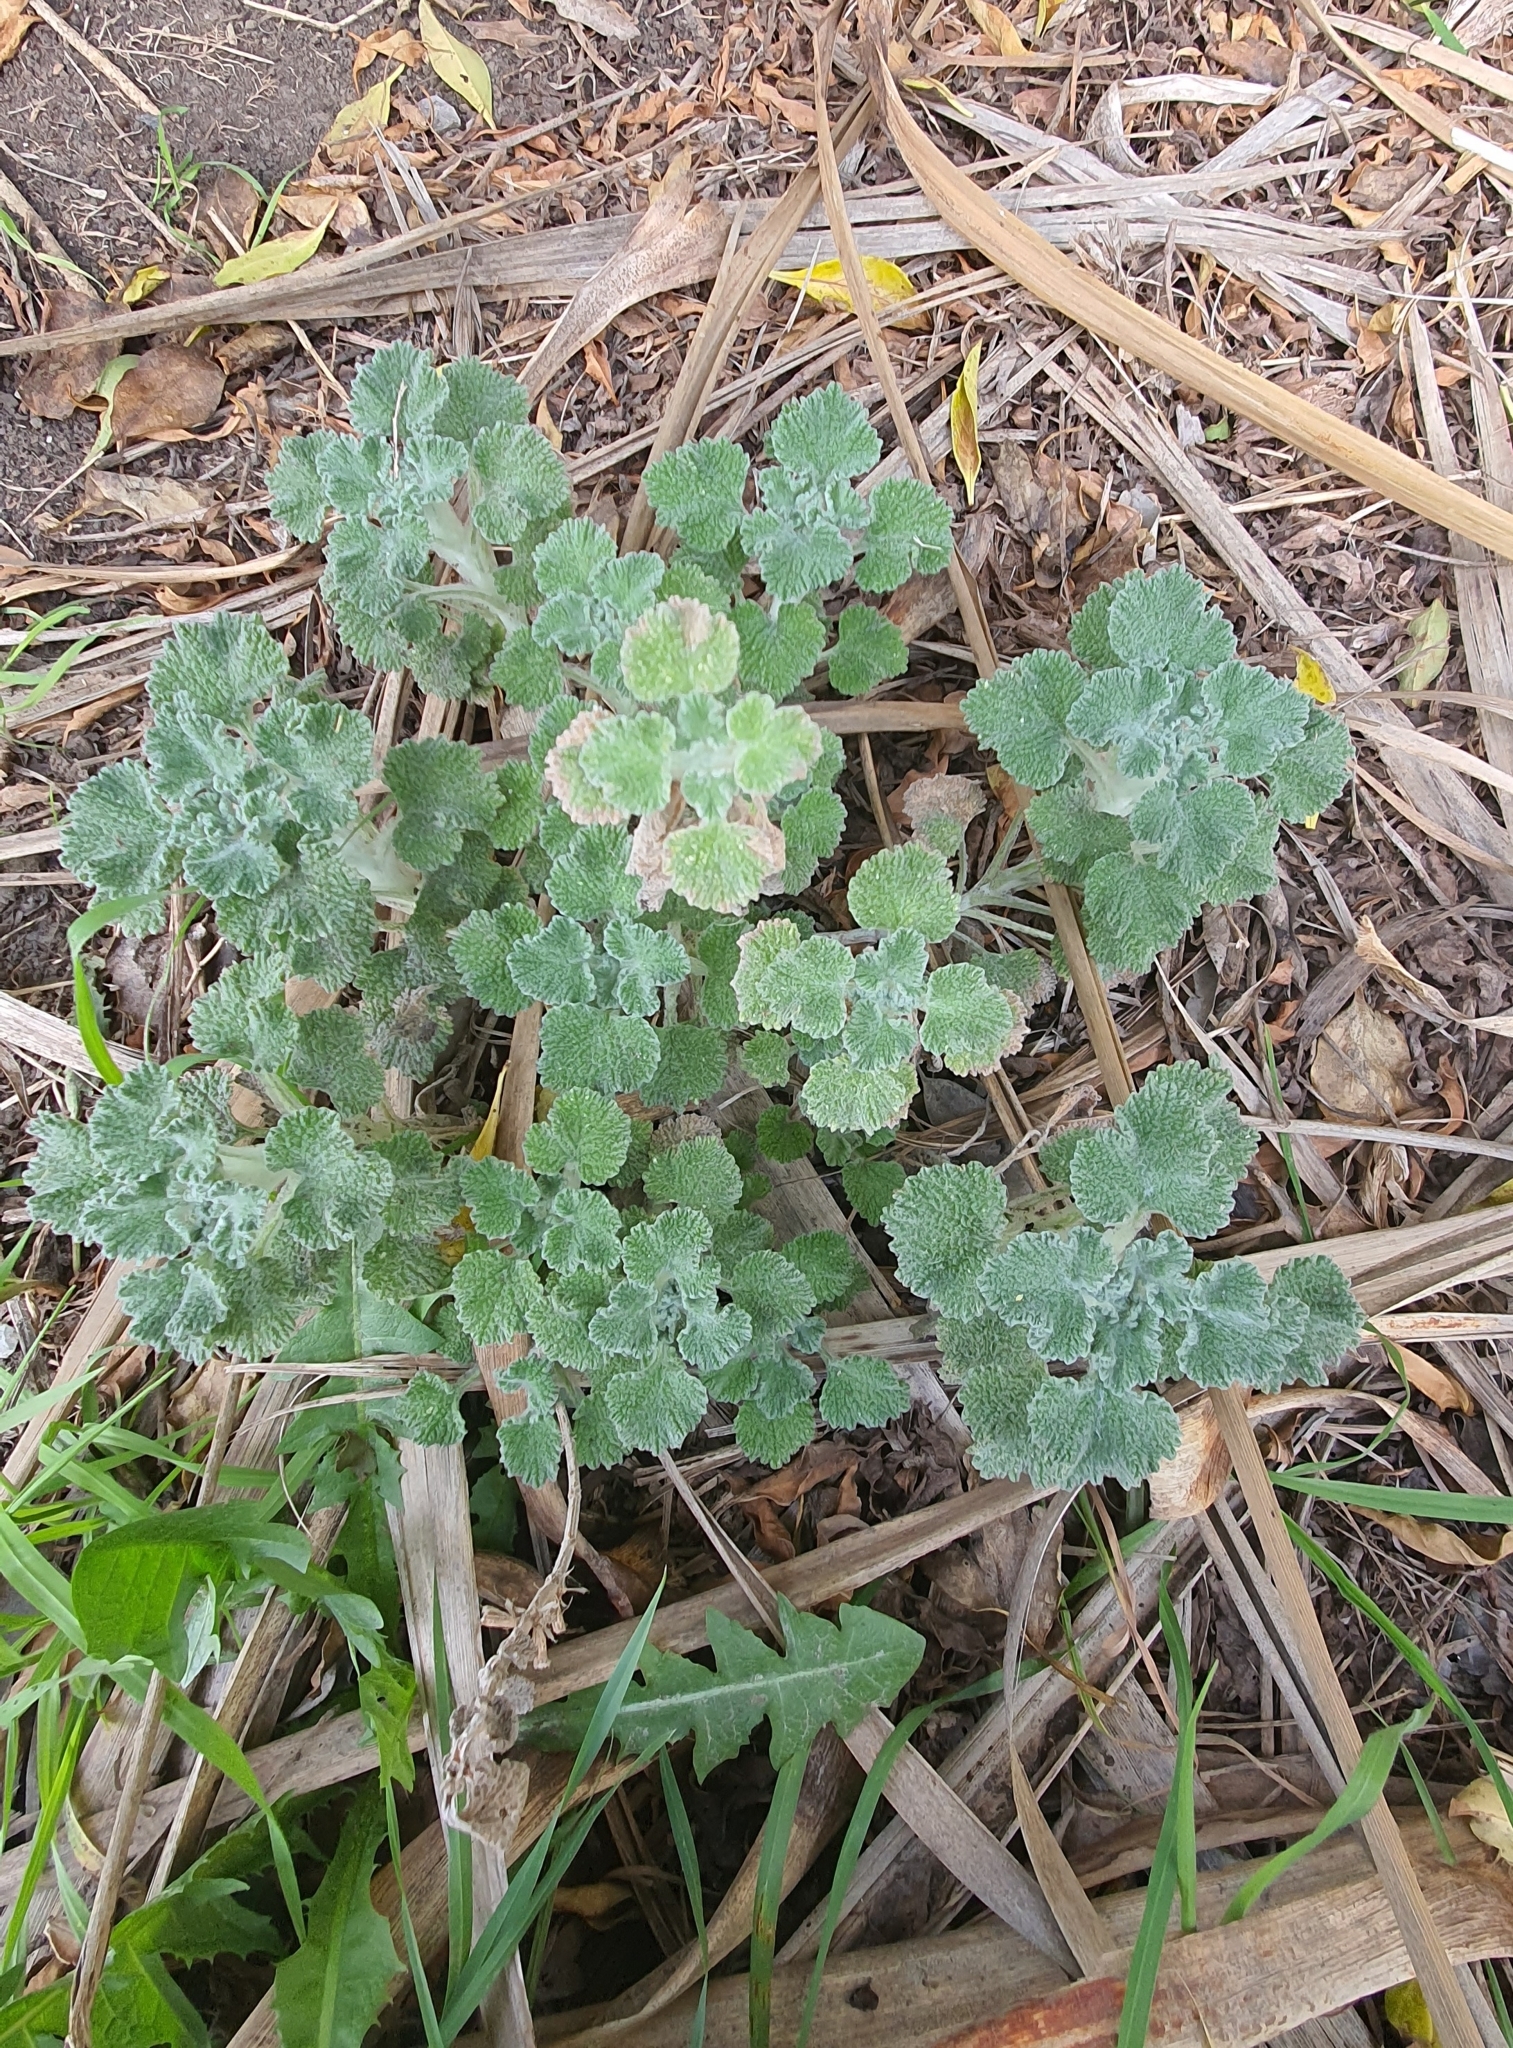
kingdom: Plantae
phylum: Tracheophyta
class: Magnoliopsida
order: Lamiales
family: Lamiaceae
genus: Marrubium
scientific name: Marrubium vulgare
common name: Horehound
